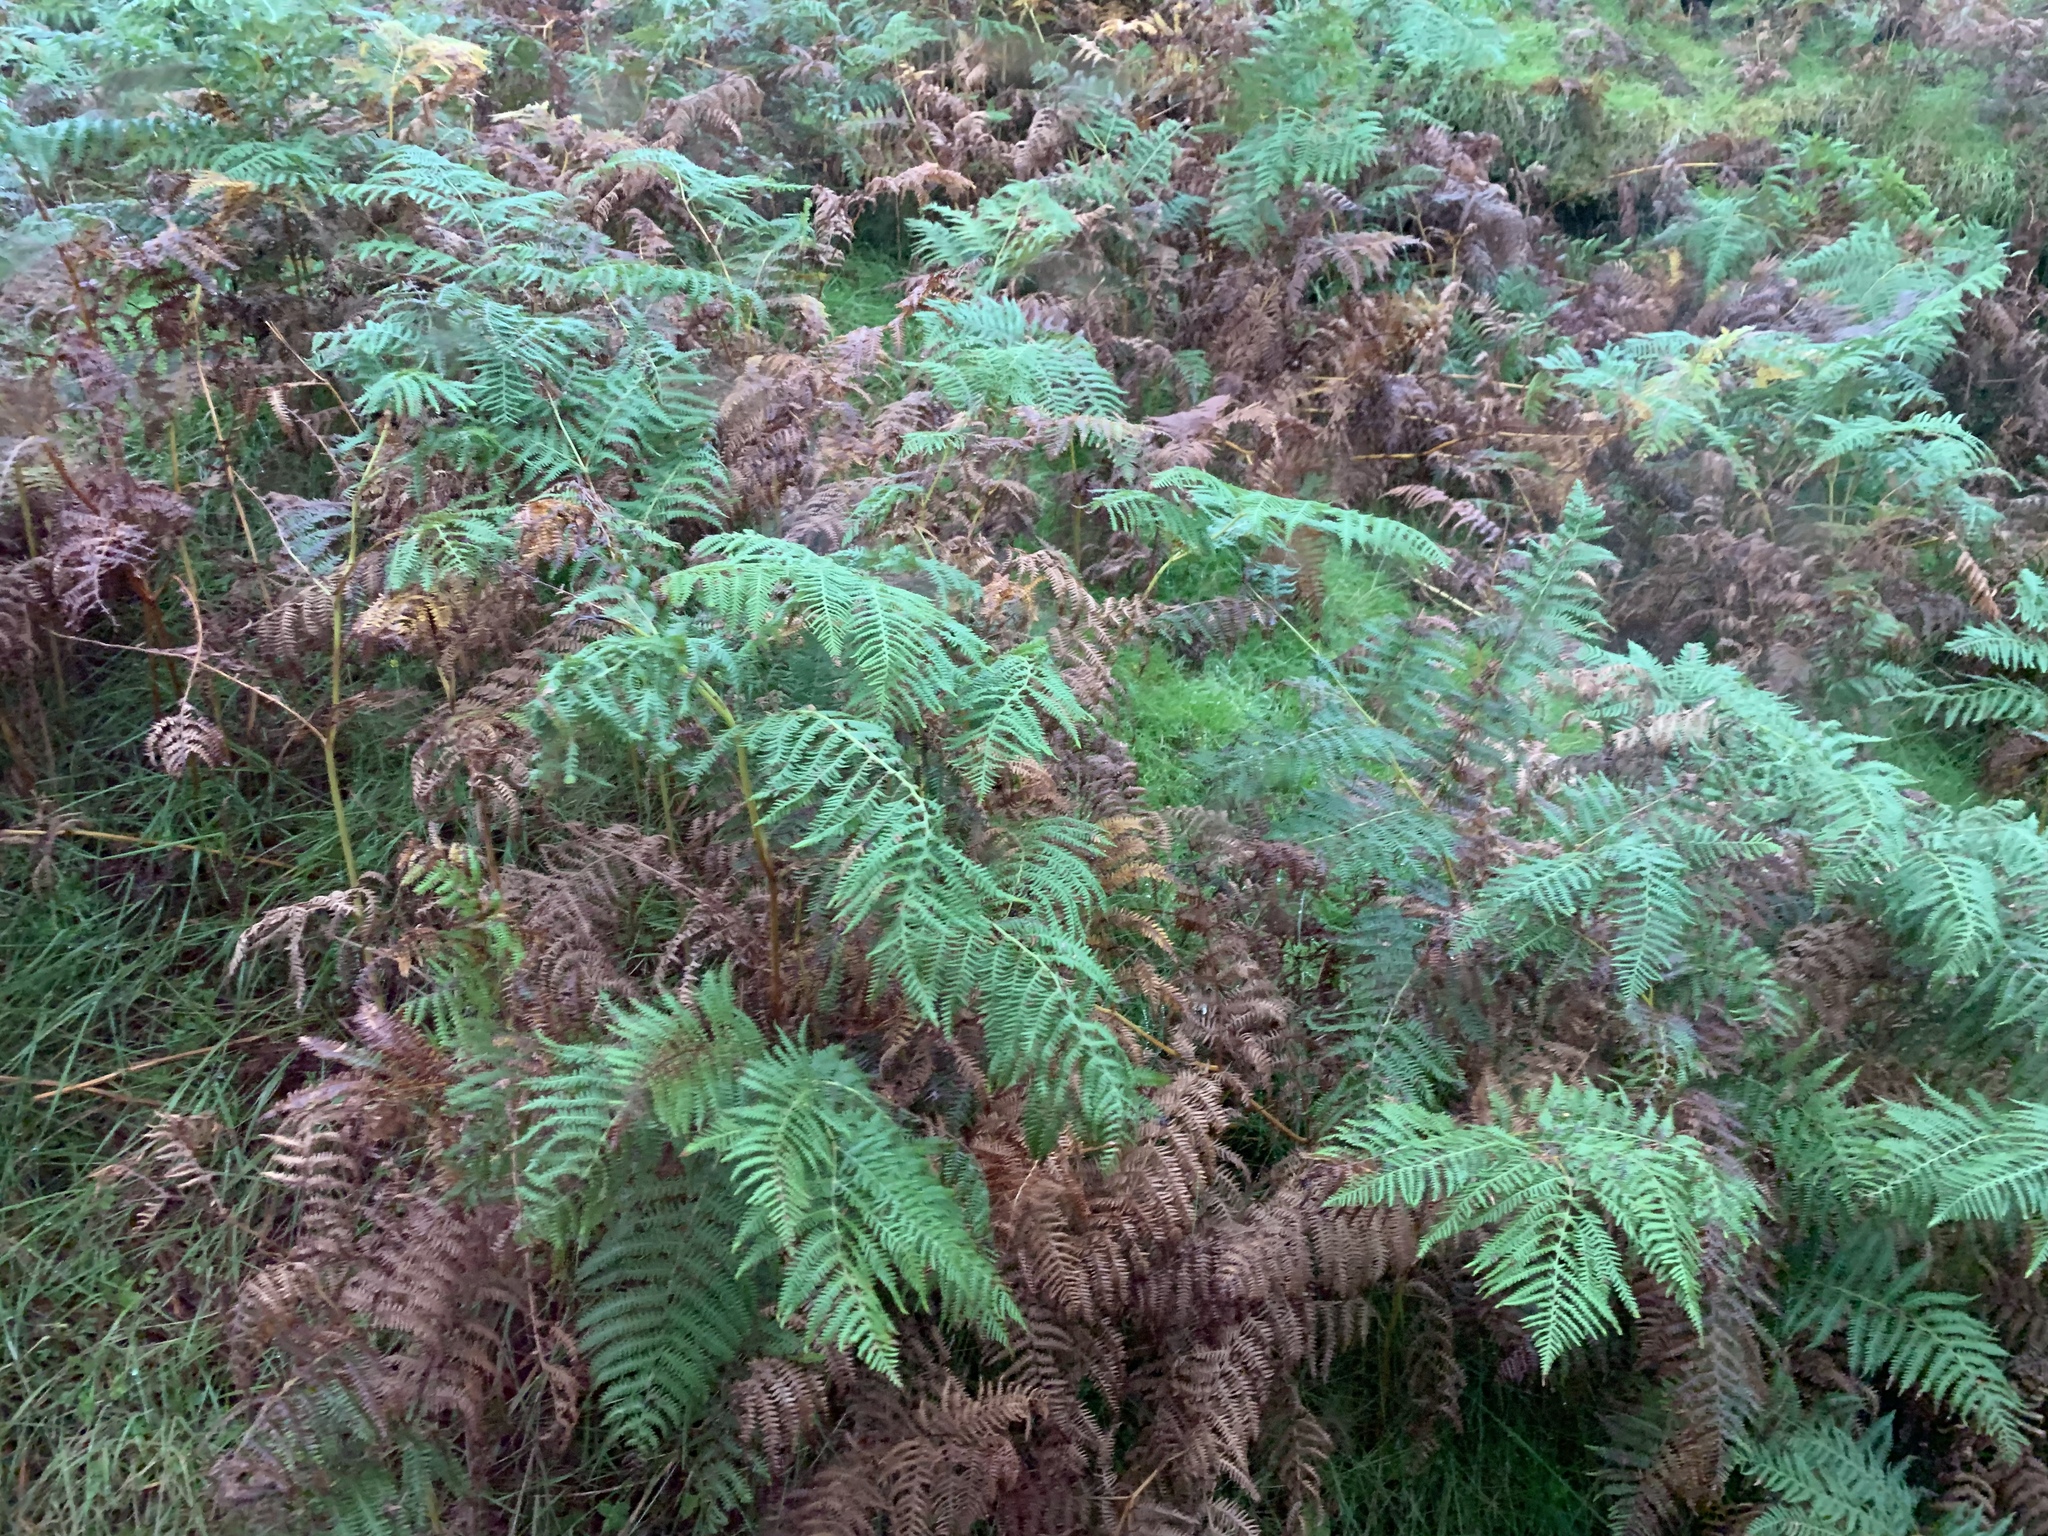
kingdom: Plantae
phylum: Tracheophyta
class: Polypodiopsida
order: Polypodiales
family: Dennstaedtiaceae
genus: Pteridium
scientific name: Pteridium aquilinum
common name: Bracken
